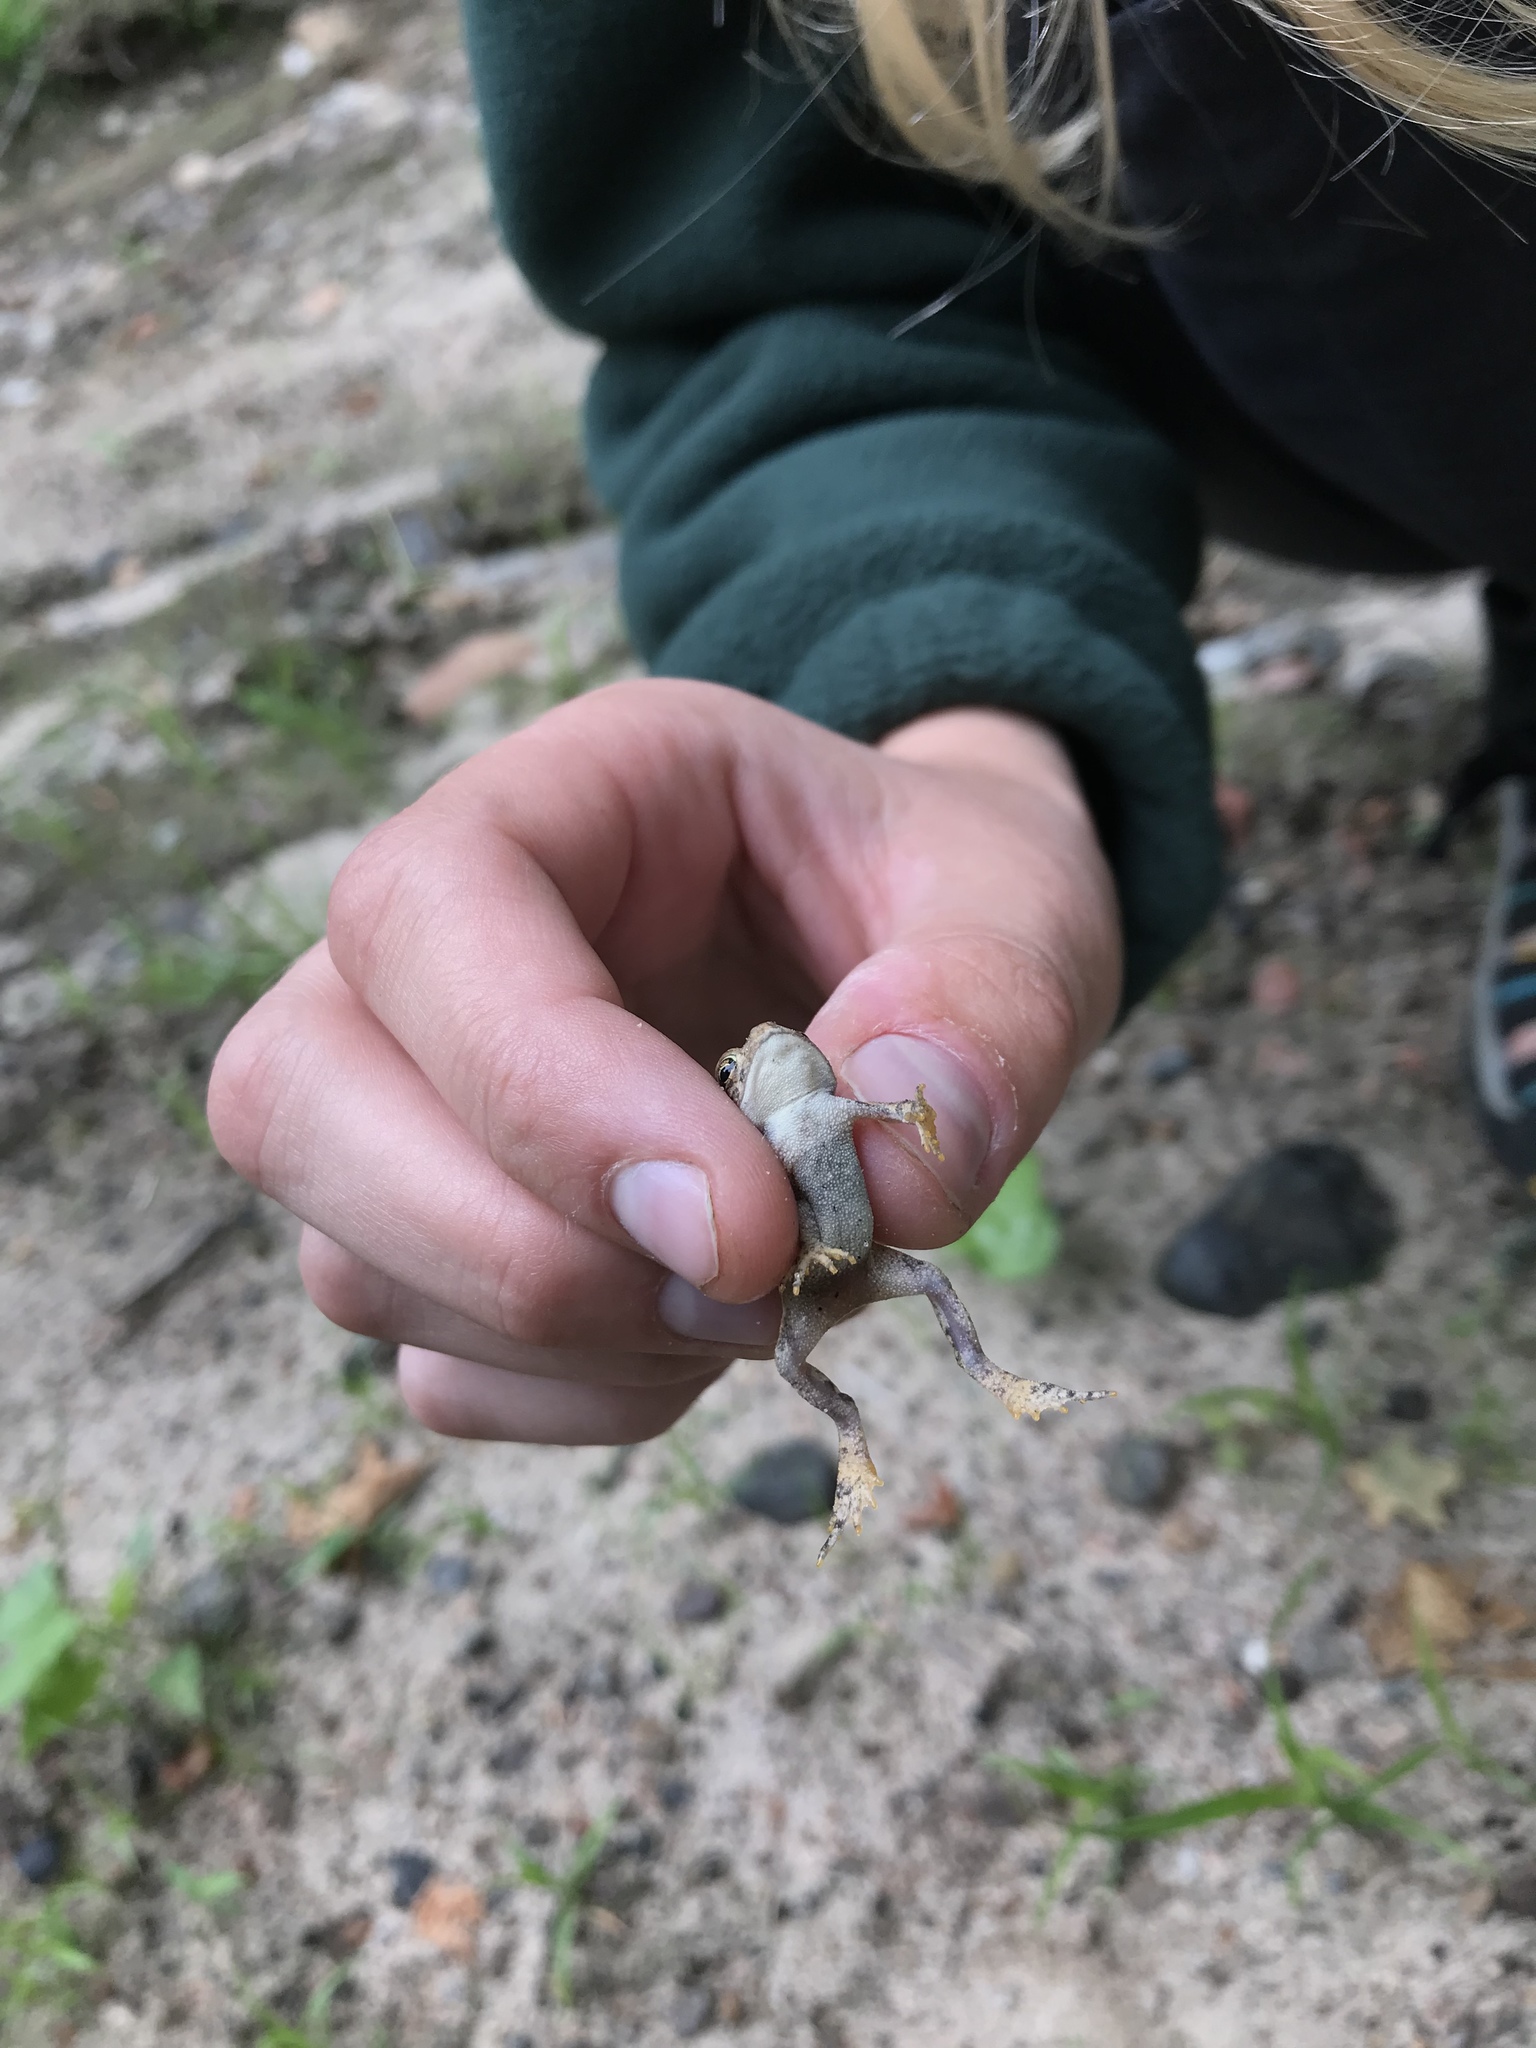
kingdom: Animalia
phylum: Chordata
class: Amphibia
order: Anura
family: Bufonidae
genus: Anaxyrus
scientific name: Anaxyrus americanus
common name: American toad
